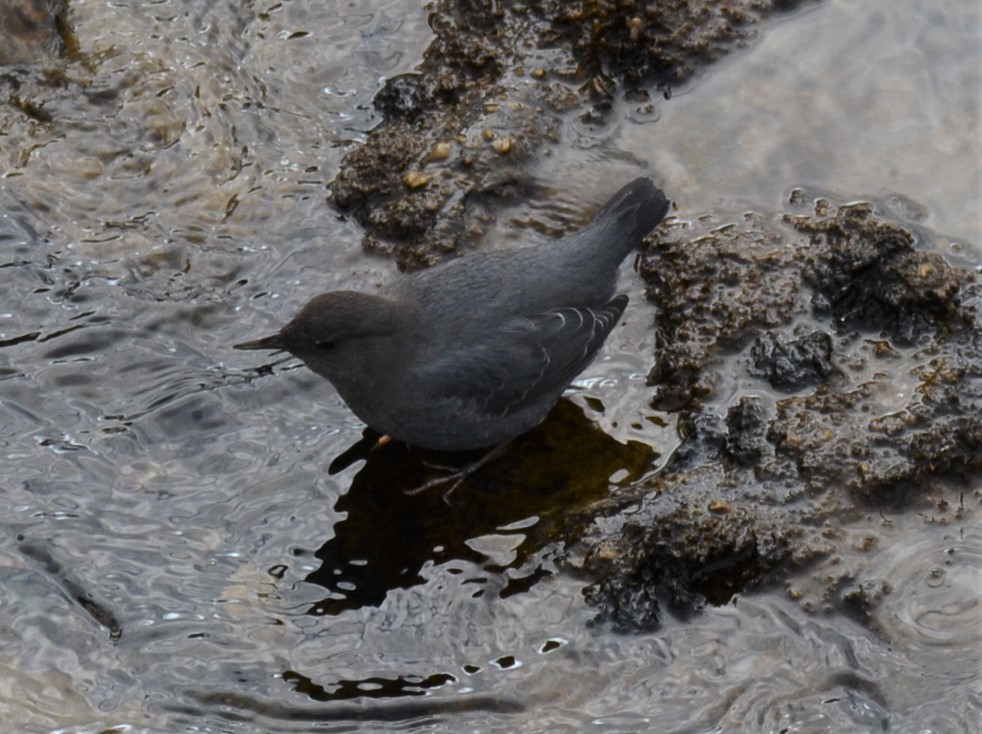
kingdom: Animalia
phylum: Chordata
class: Aves
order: Passeriformes
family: Cinclidae
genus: Cinclus
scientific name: Cinclus mexicanus
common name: American dipper
